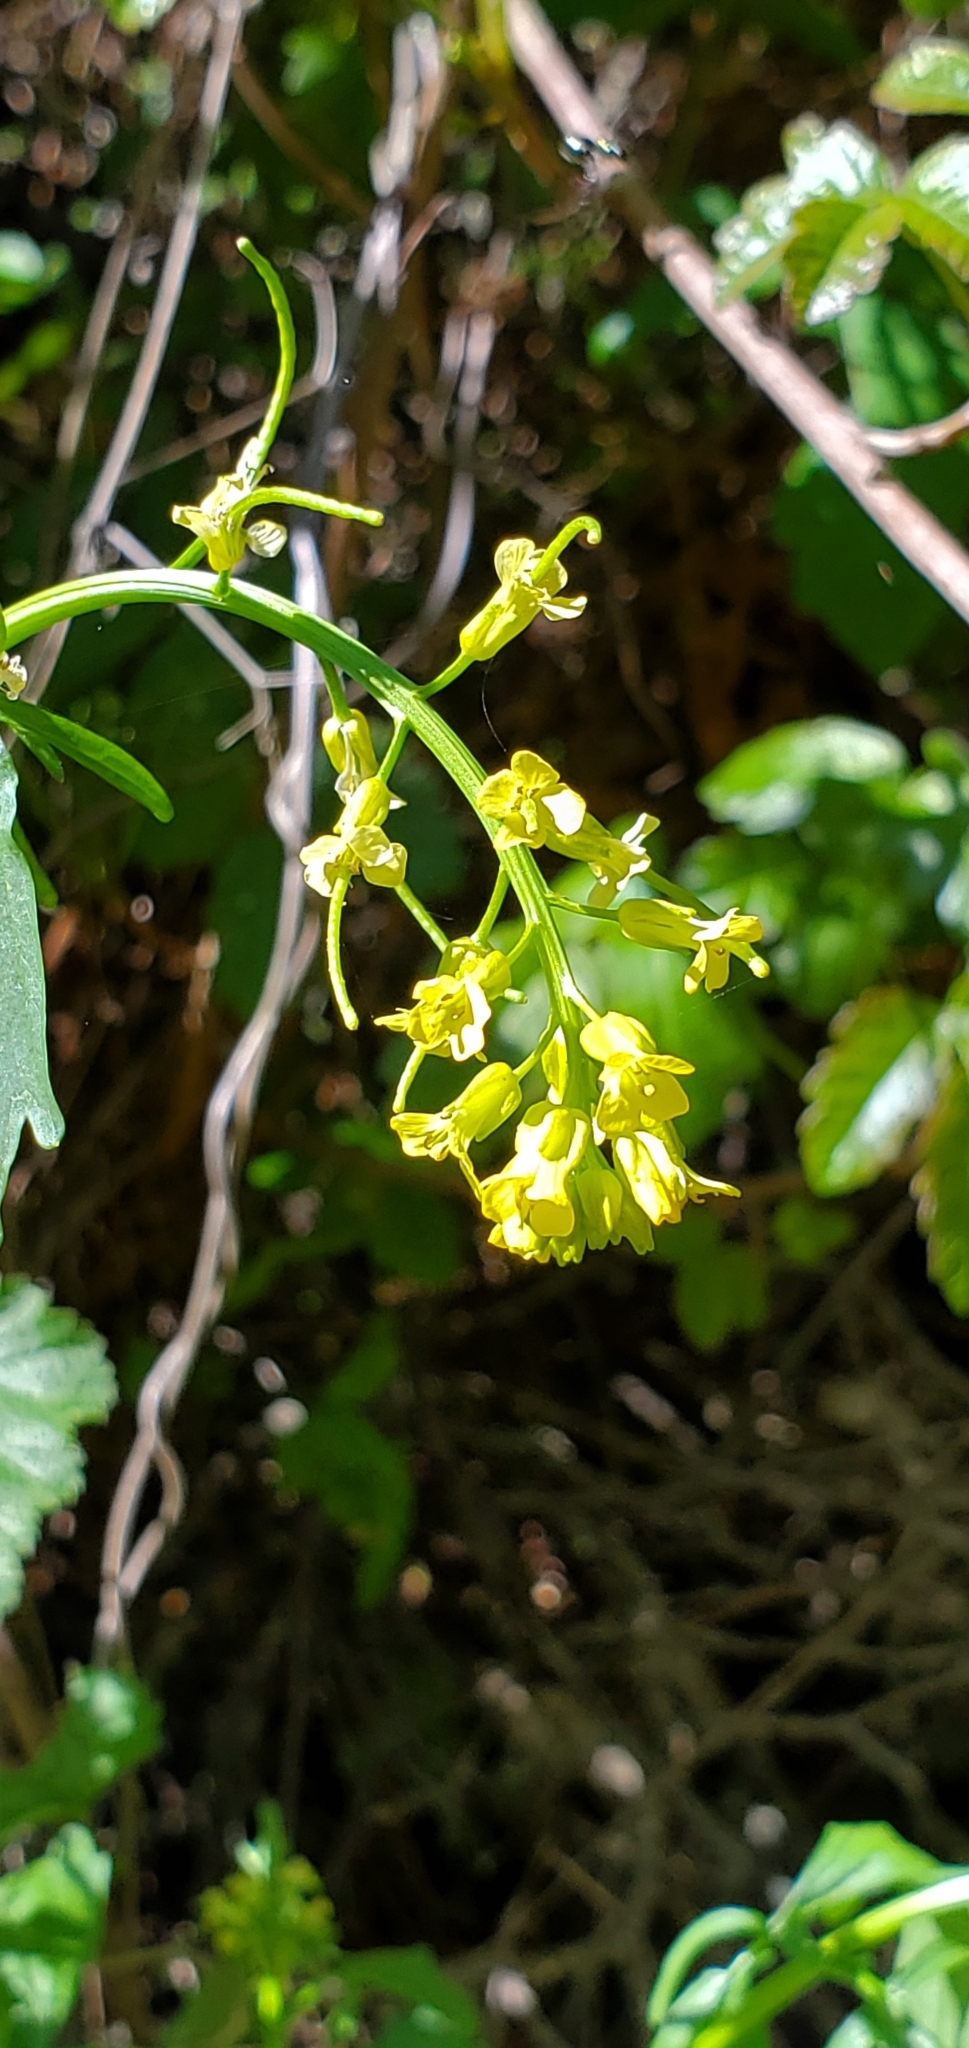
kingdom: Plantae
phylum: Tracheophyta
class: Magnoliopsida
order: Brassicales
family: Brassicaceae
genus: Barbarea
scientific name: Barbarea orthoceras
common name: American wintercress
